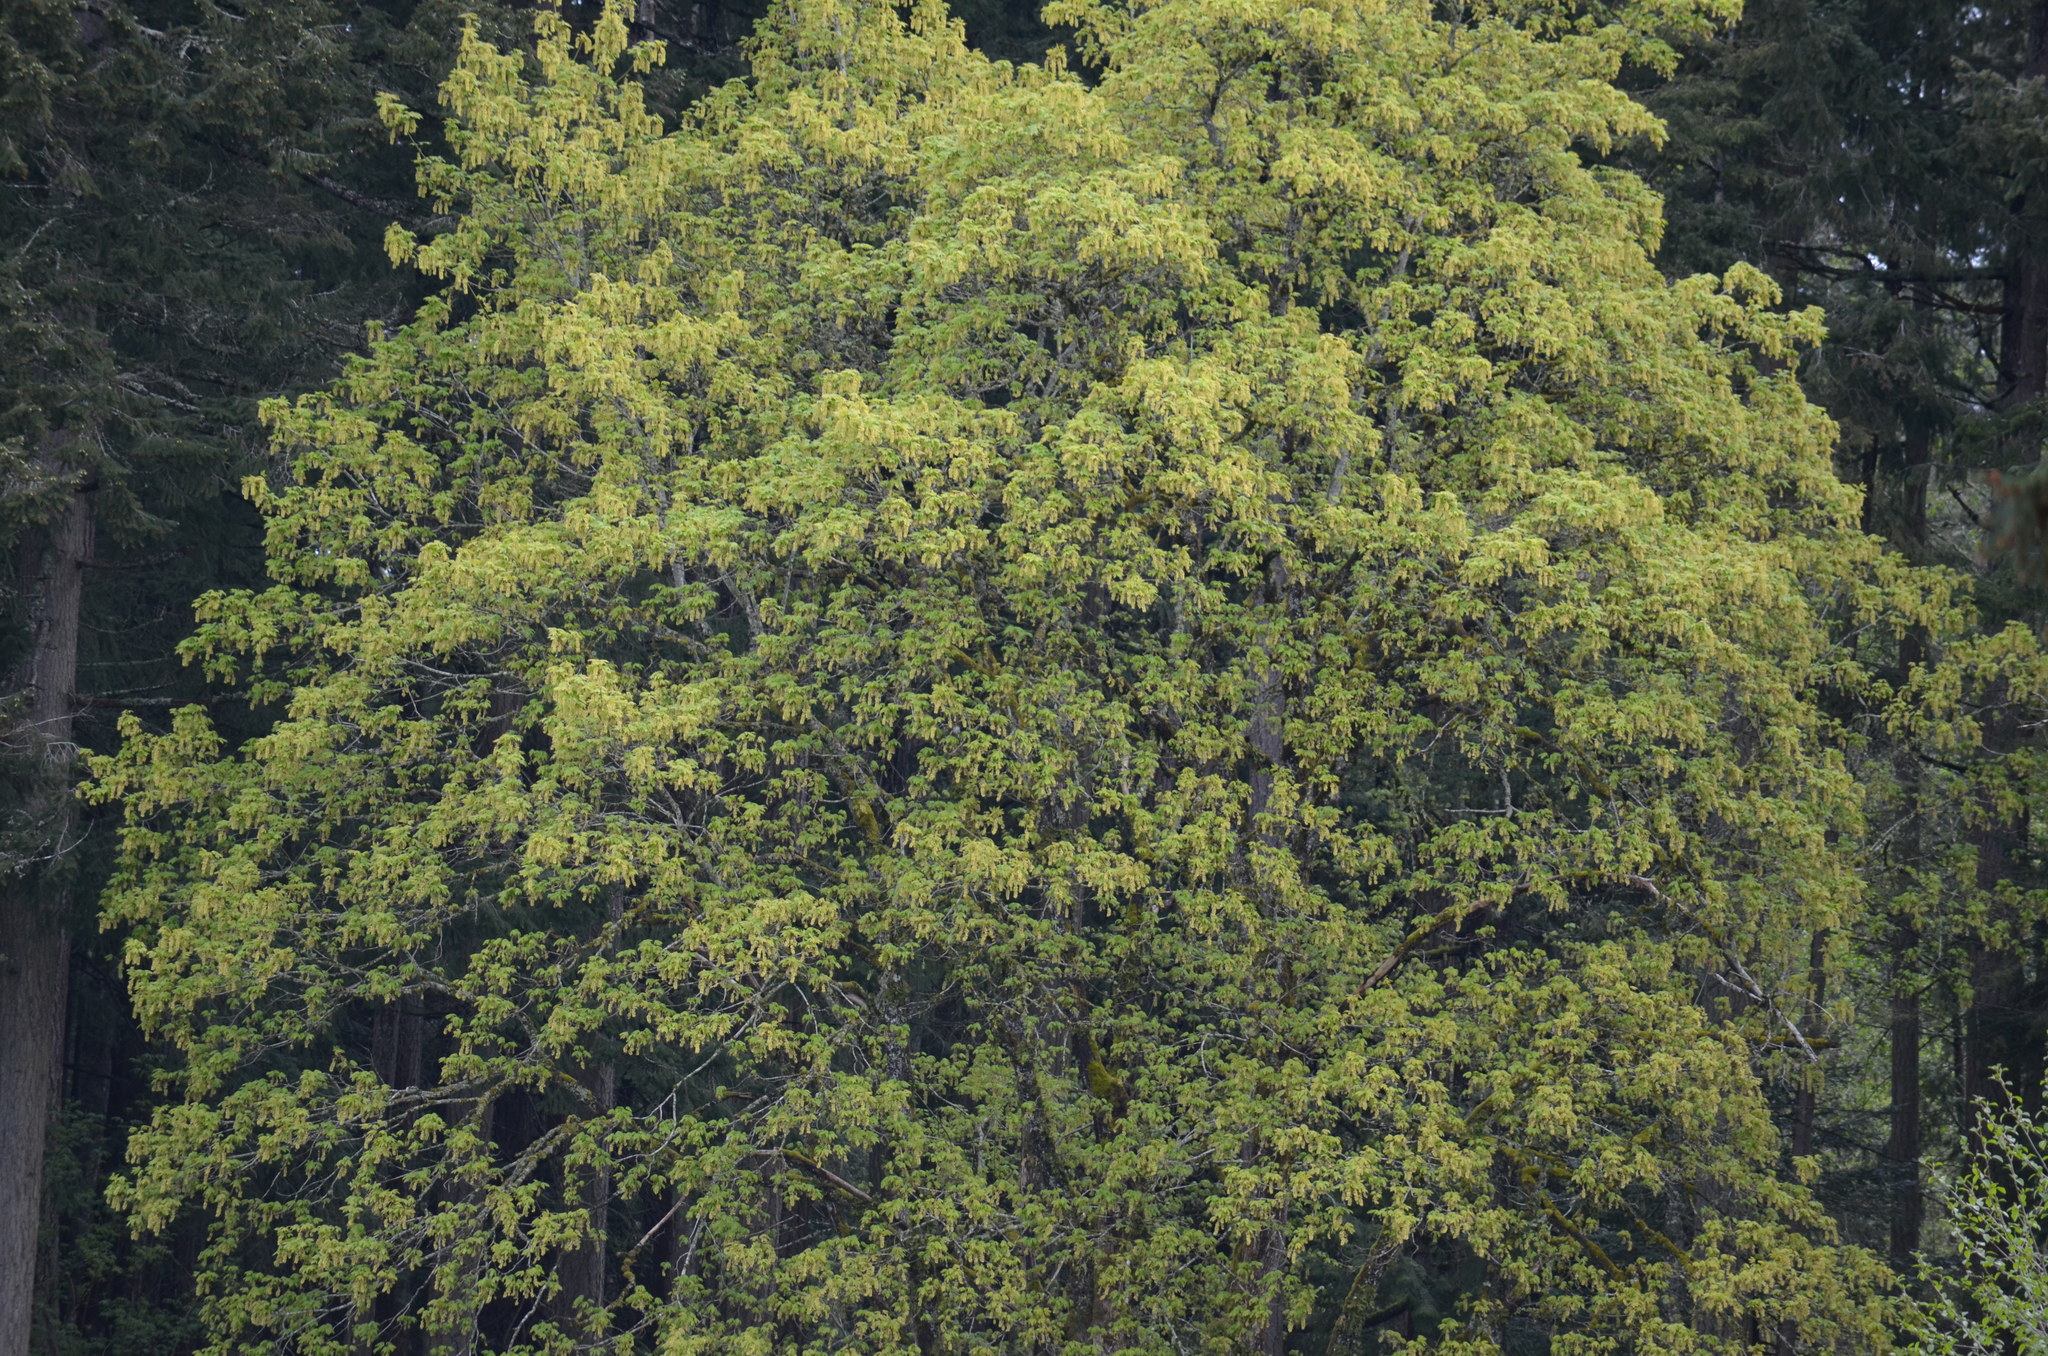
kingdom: Plantae
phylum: Tracheophyta
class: Magnoliopsida
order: Sapindales
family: Sapindaceae
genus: Acer
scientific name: Acer macrophyllum
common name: Oregon maple
